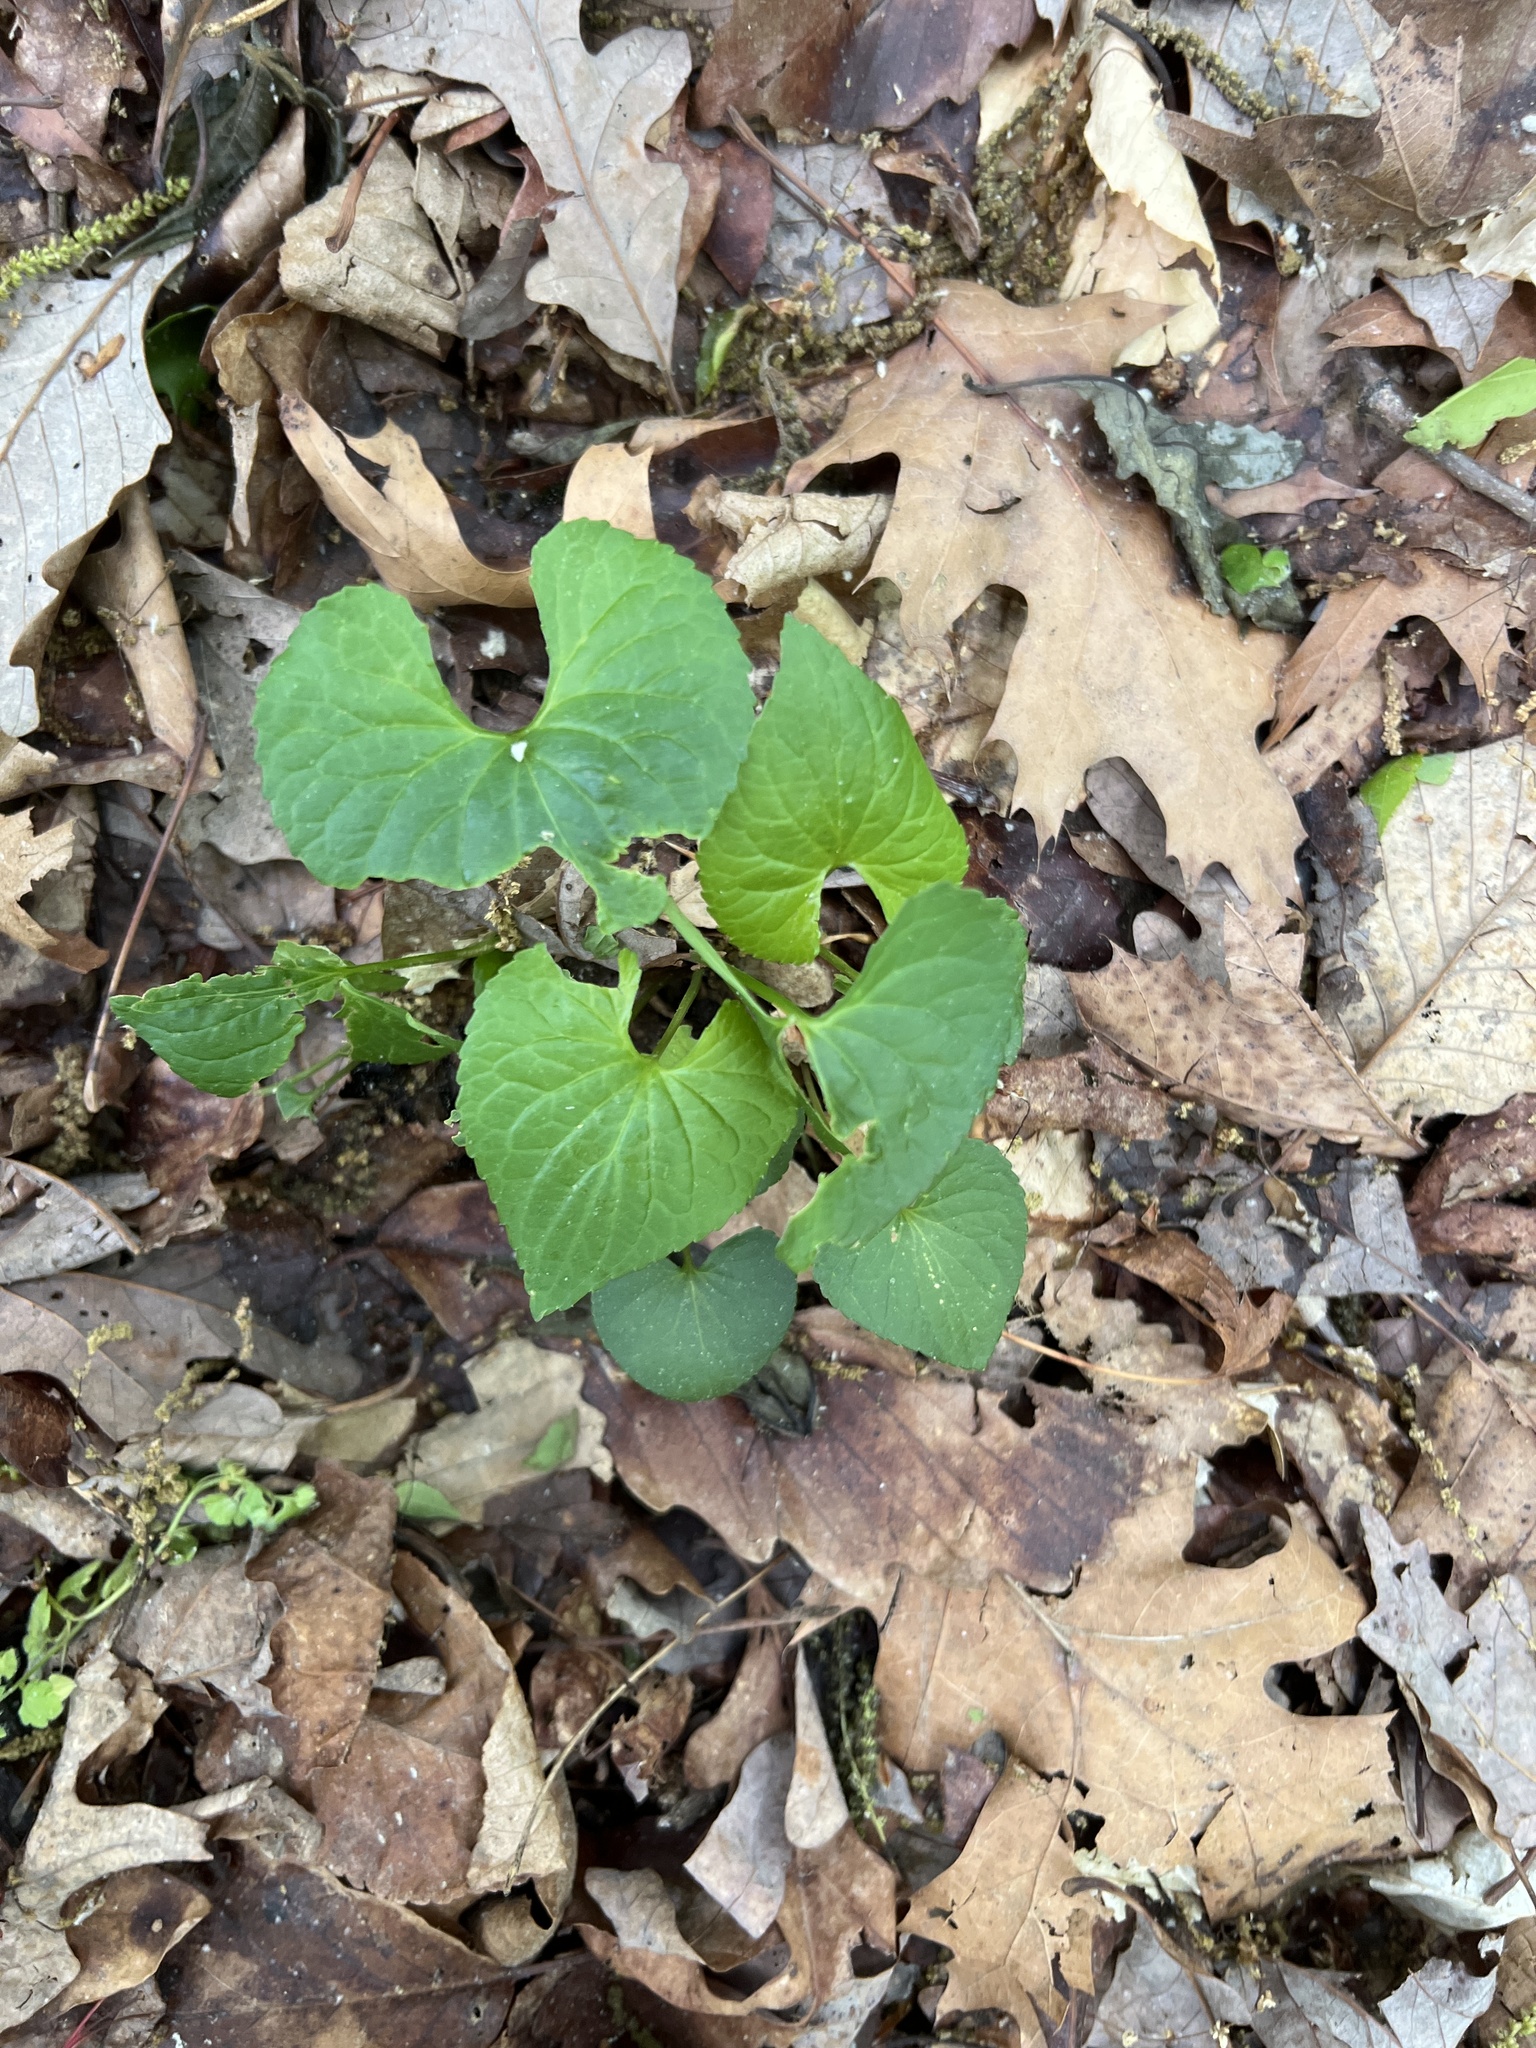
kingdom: Plantae
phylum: Tracheophyta
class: Magnoliopsida
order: Malpighiales
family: Violaceae
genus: Viola
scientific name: Viola sororia
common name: Dooryard violet
